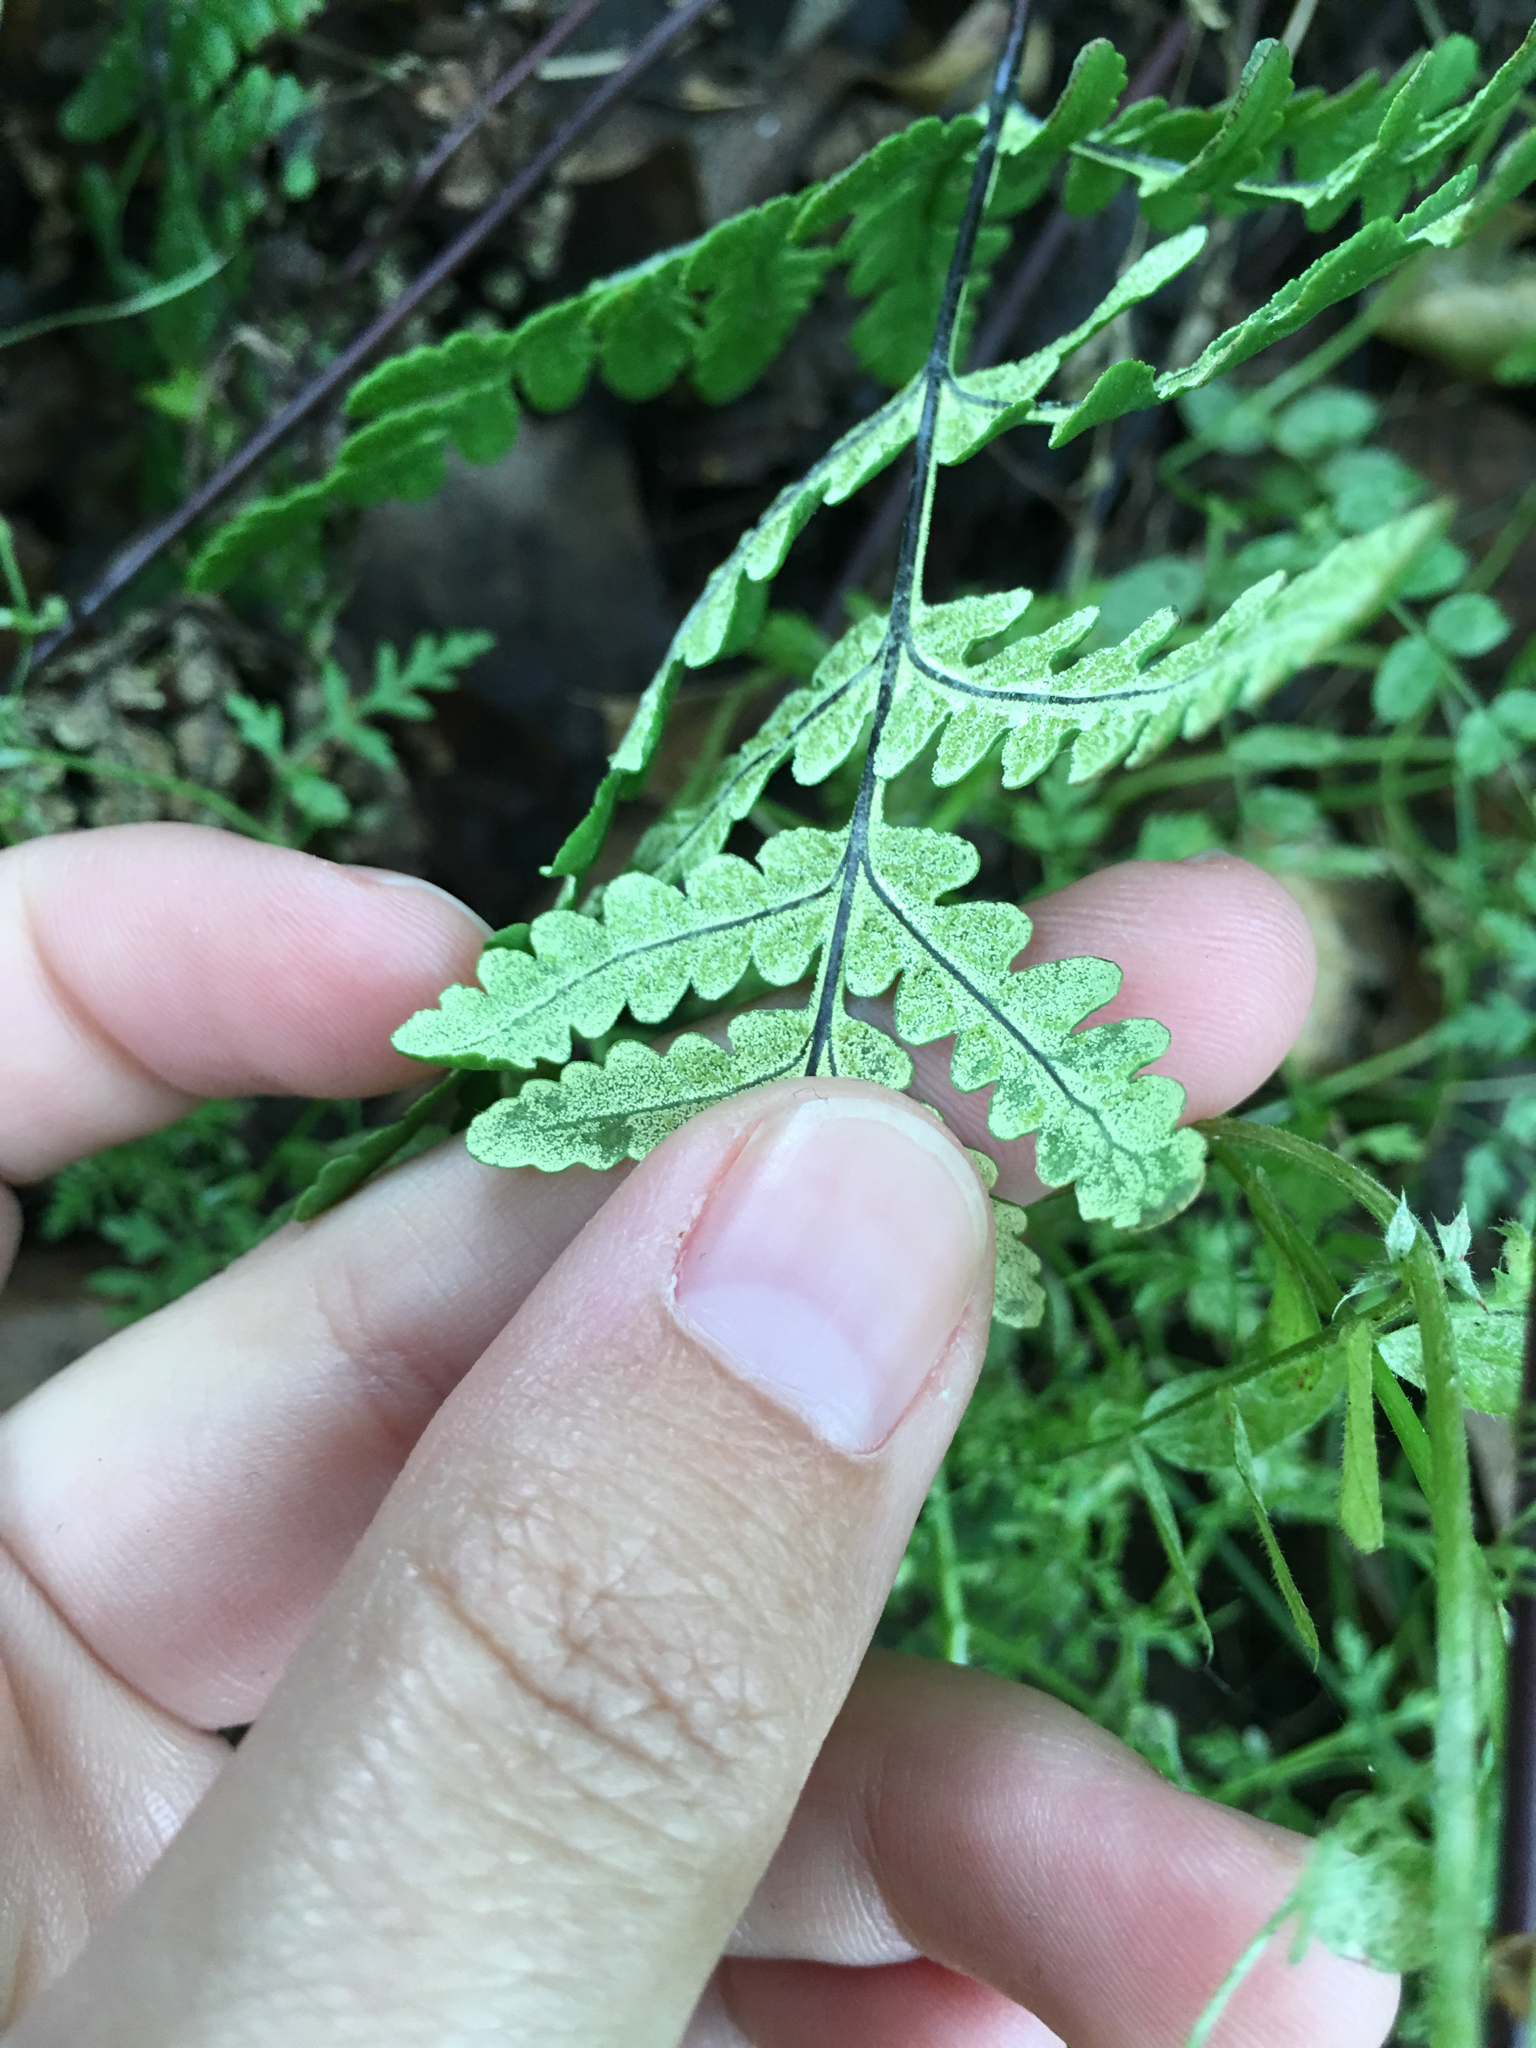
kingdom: Plantae
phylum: Tracheophyta
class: Polypodiopsida
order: Polypodiales
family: Pteridaceae
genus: Pentagramma
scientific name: Pentagramma triangularis
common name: Gold fern
